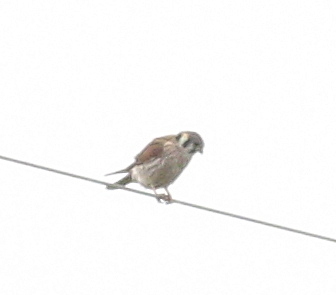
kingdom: Animalia
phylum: Chordata
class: Aves
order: Falconiformes
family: Falconidae
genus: Falco
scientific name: Falco sparverius
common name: American kestrel
